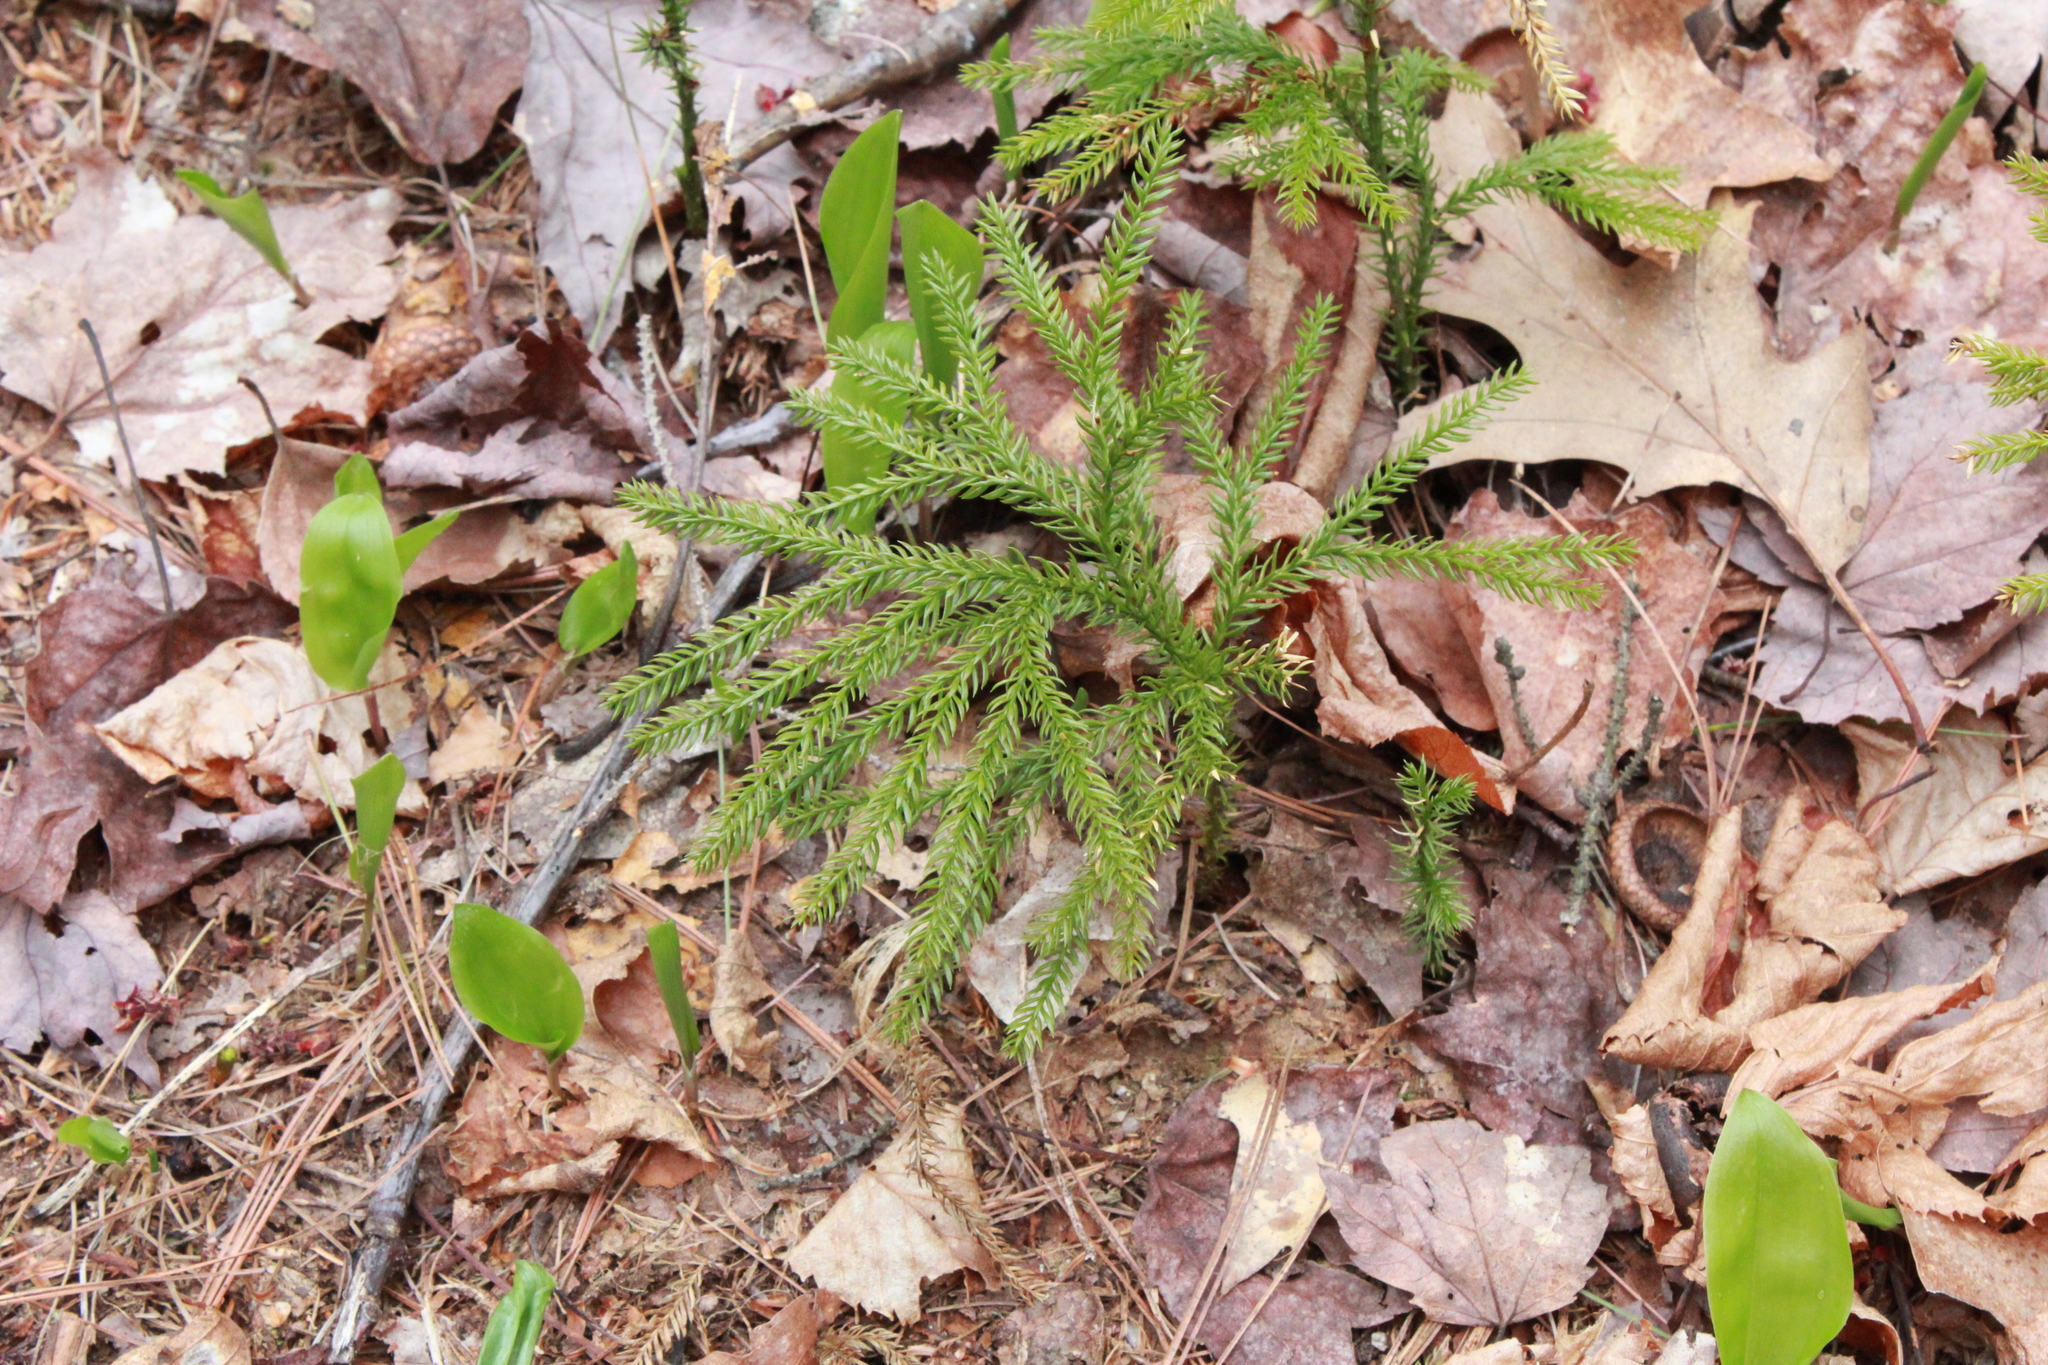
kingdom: Plantae
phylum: Tracheophyta
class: Lycopodiopsida
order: Lycopodiales
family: Lycopodiaceae
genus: Dendrolycopodium
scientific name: Dendrolycopodium dendroideum
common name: Northern tree-clubmoss
